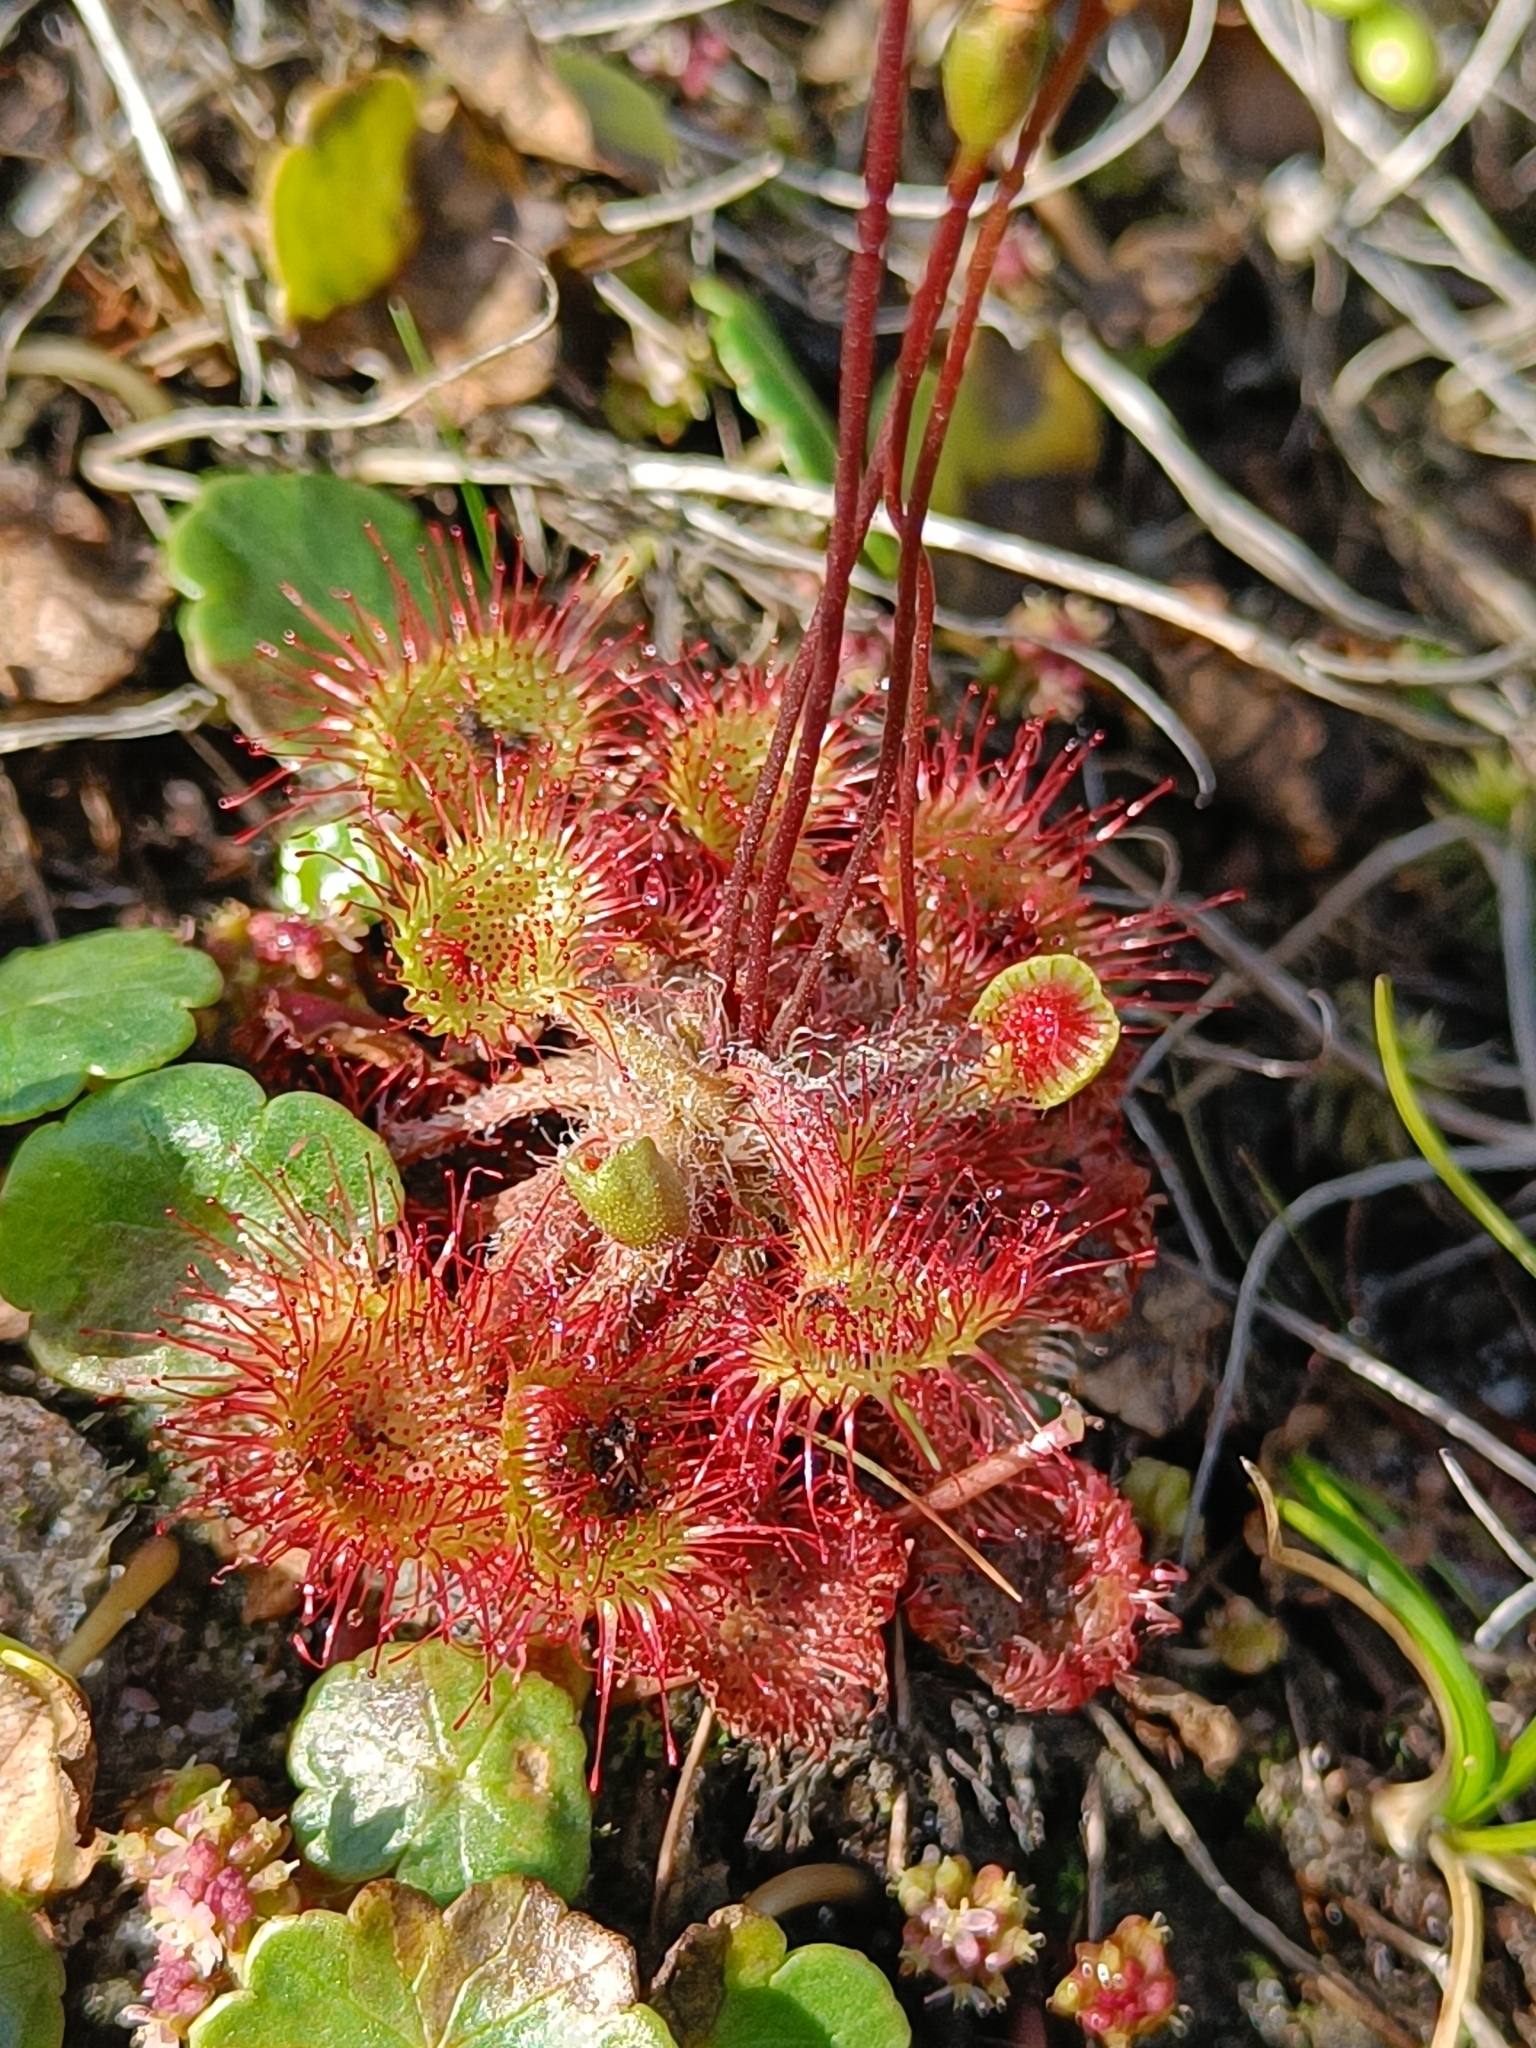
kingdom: Plantae
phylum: Tracheophyta
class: Magnoliopsida
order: Caryophyllales
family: Droseraceae
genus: Drosera
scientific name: Drosera rotundifolia
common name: Round-leaved sundew
